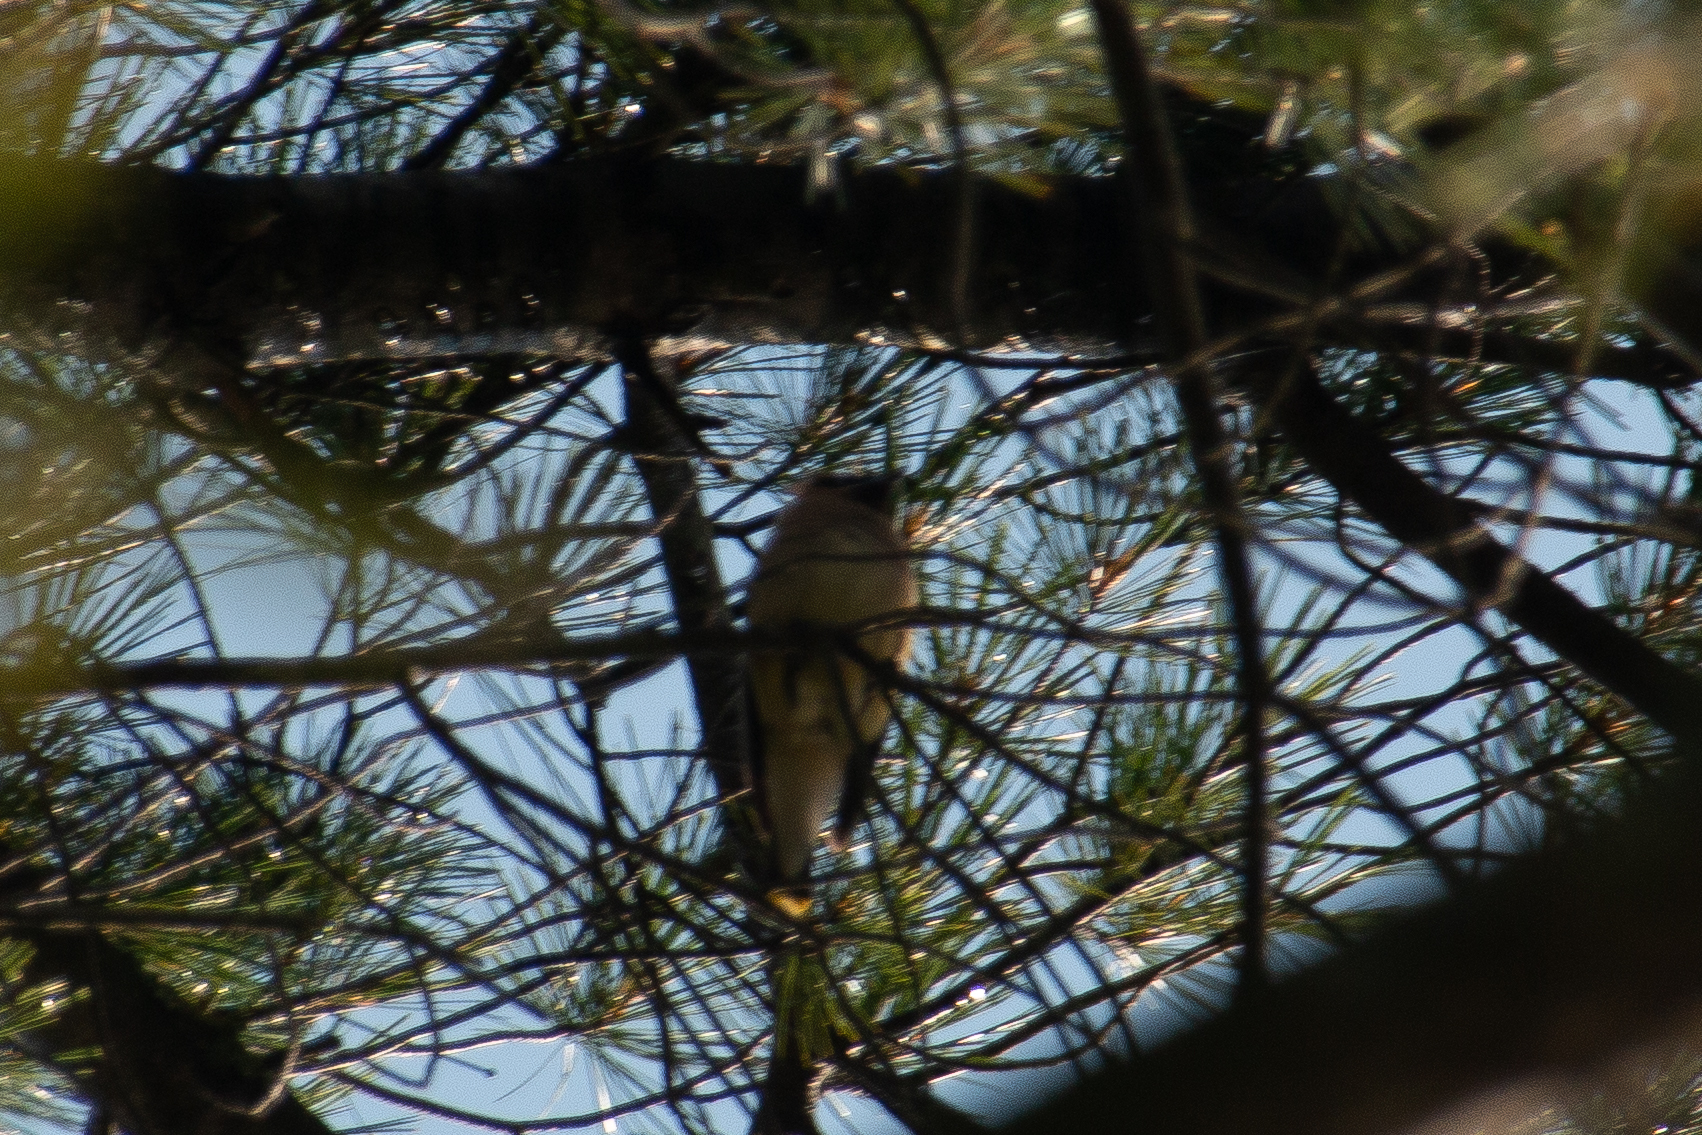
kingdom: Animalia
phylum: Chordata
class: Aves
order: Passeriformes
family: Bombycillidae
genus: Bombycilla
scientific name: Bombycilla cedrorum
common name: Cedar waxwing
